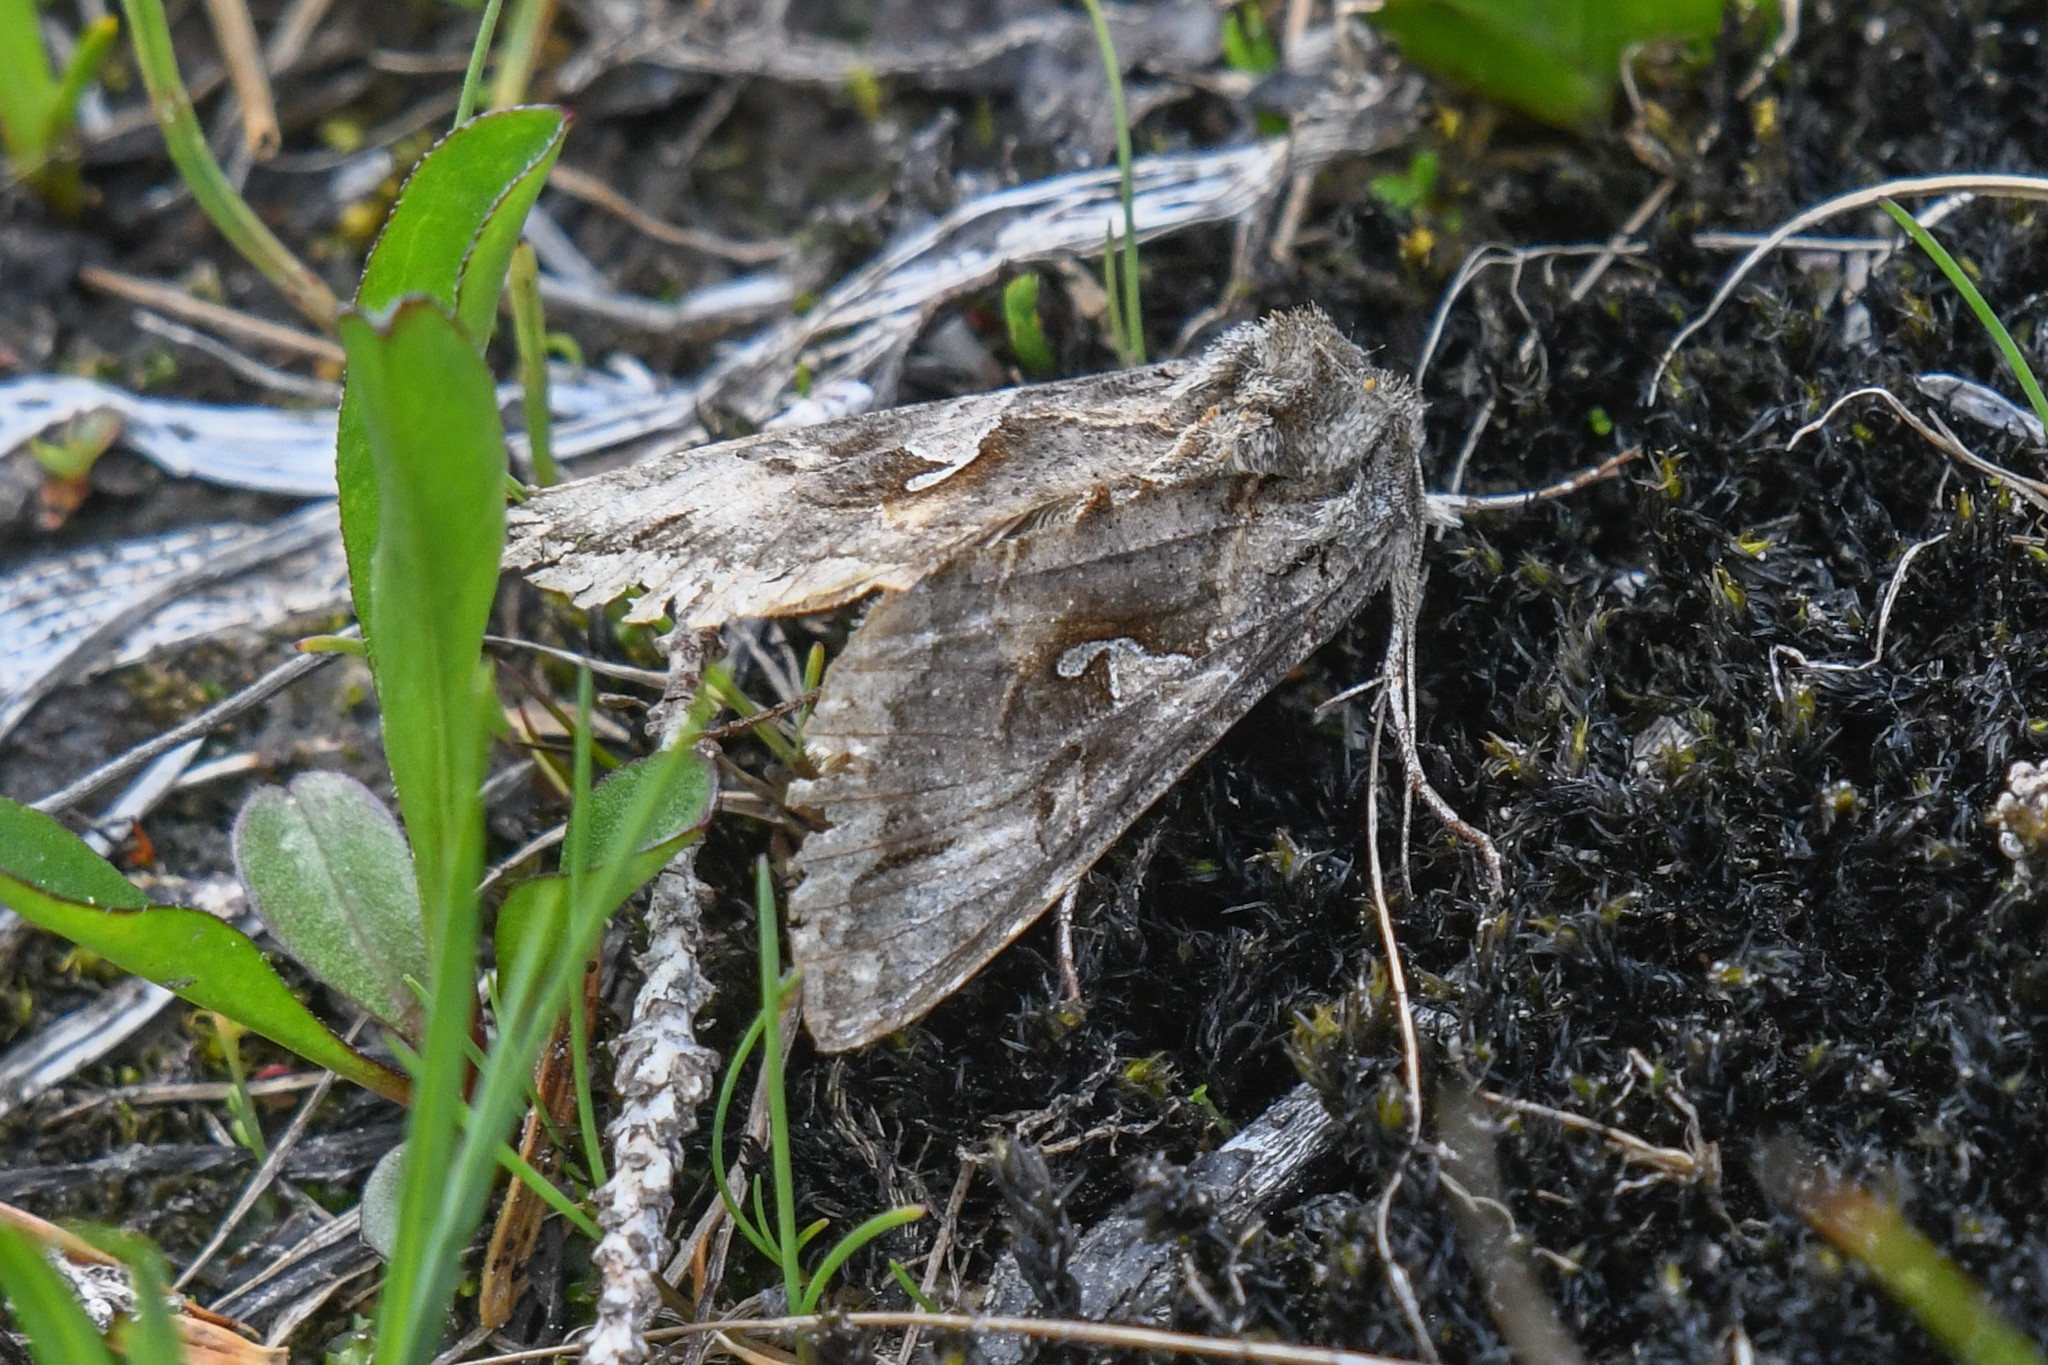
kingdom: Animalia
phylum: Arthropoda
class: Insecta
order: Lepidoptera
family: Noctuidae
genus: Autographa
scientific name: Autographa californica
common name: Alfalfa looper
